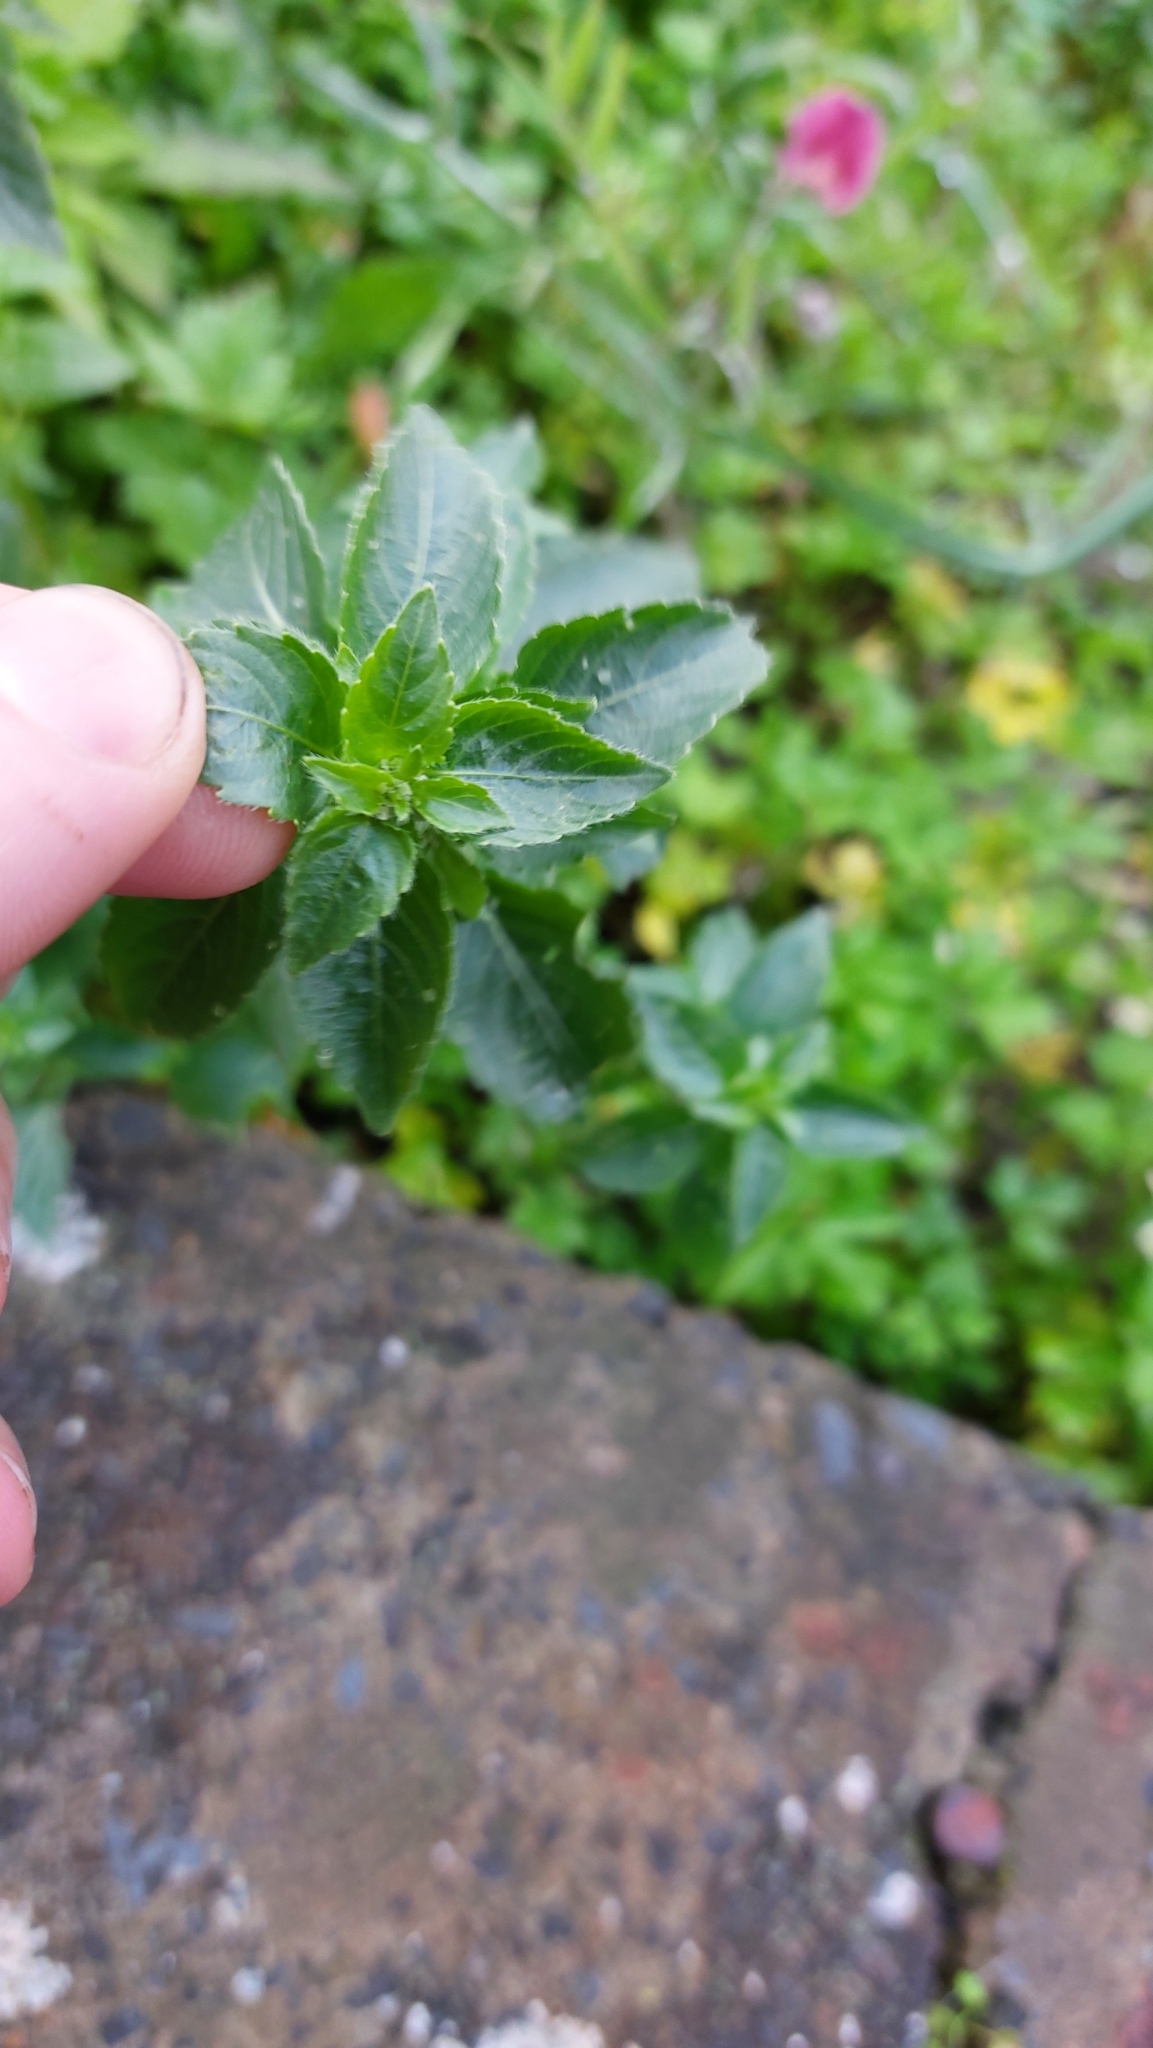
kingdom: Plantae
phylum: Tracheophyta
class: Magnoliopsida
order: Malpighiales
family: Euphorbiaceae
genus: Mercurialis
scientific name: Mercurialis annua
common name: Annual mercury
